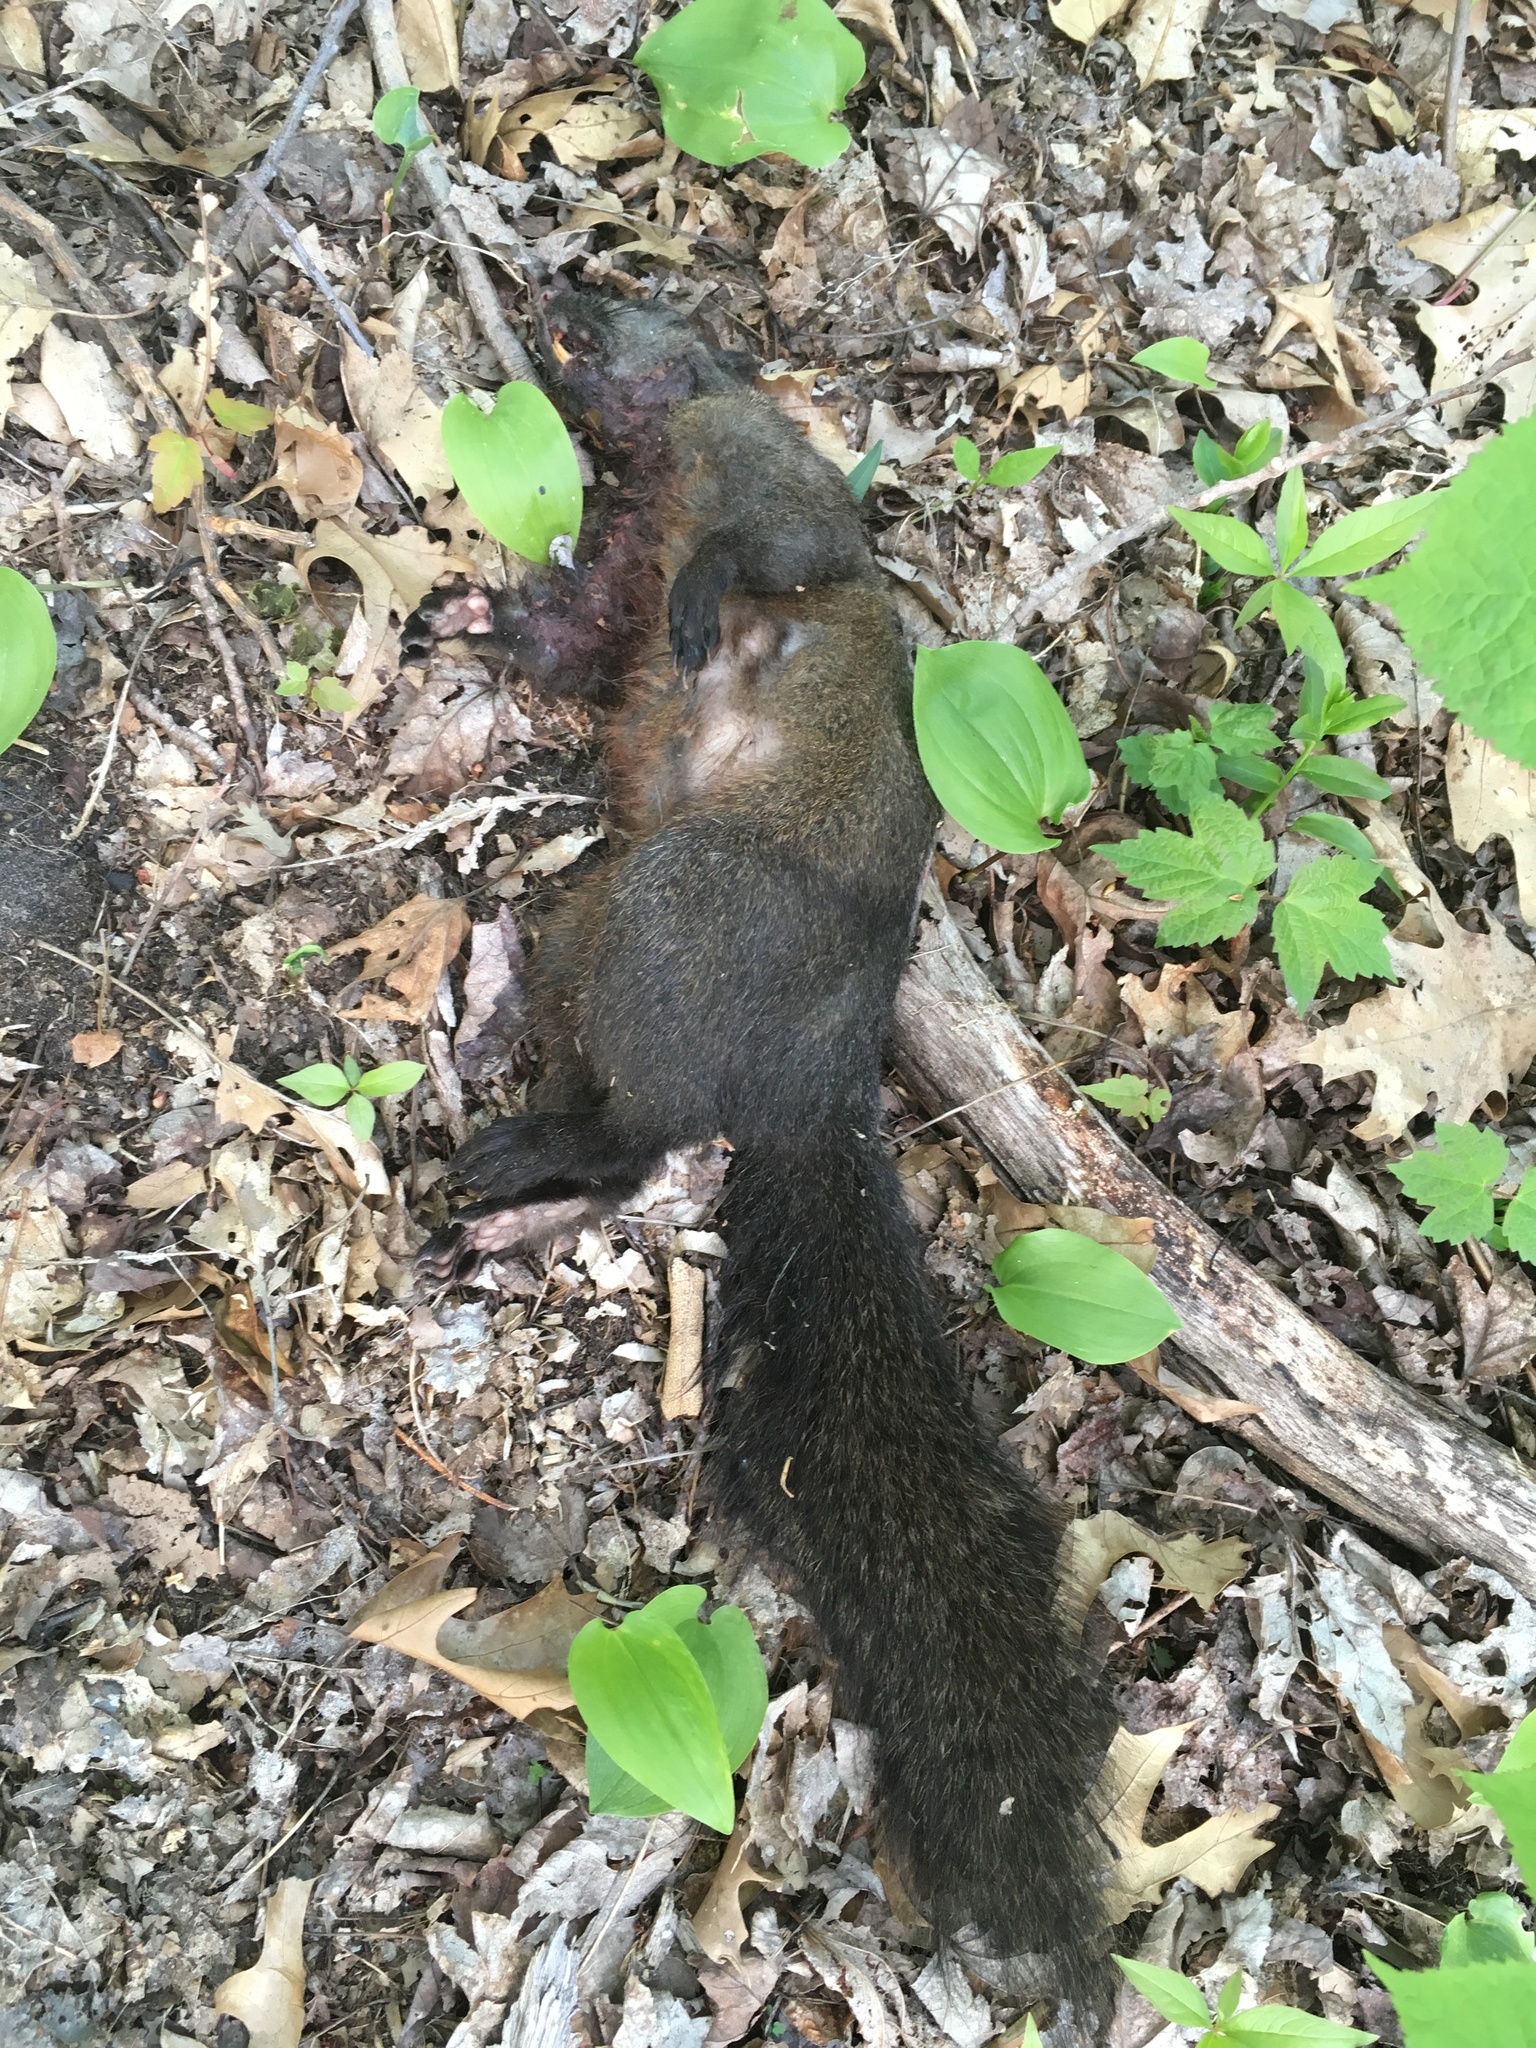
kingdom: Animalia
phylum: Chordata
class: Mammalia
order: Rodentia
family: Sciuridae
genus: Sciurus
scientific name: Sciurus carolinensis
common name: Eastern gray squirrel
